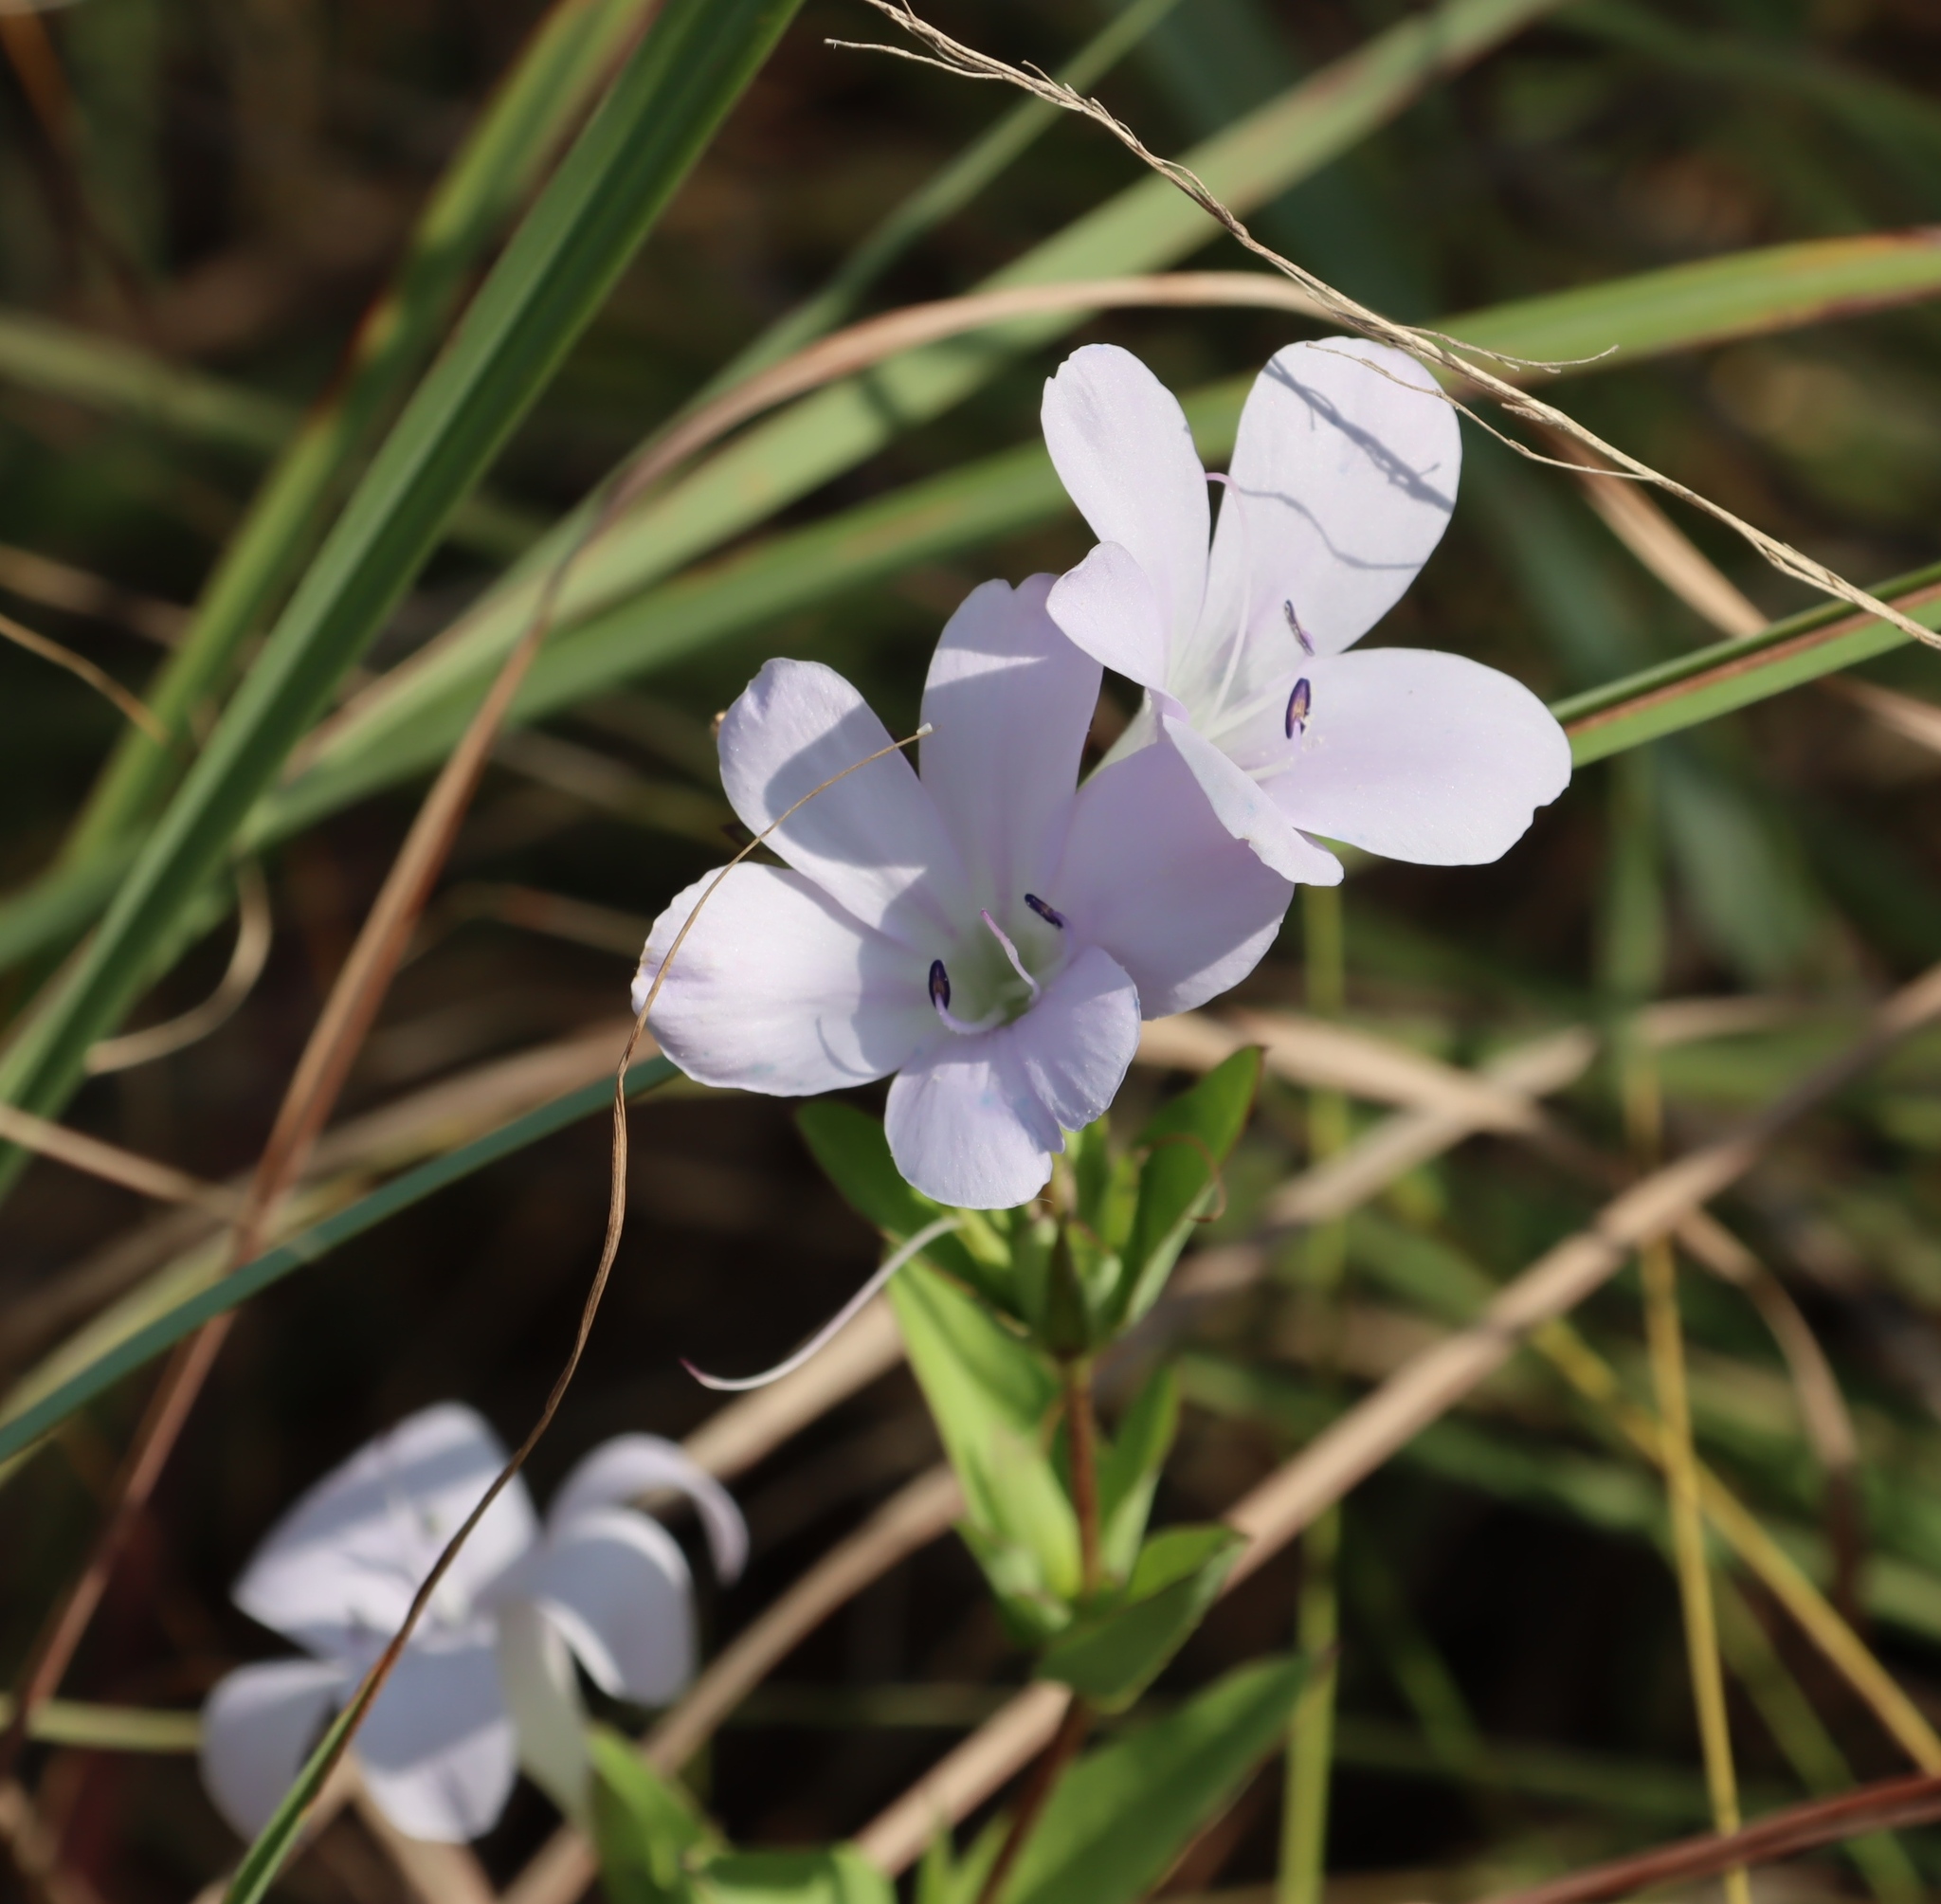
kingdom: Plantae
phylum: Tracheophyta
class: Magnoliopsida
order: Lamiales
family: Acanthaceae
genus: Barleria
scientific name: Barleria wilmsiana
